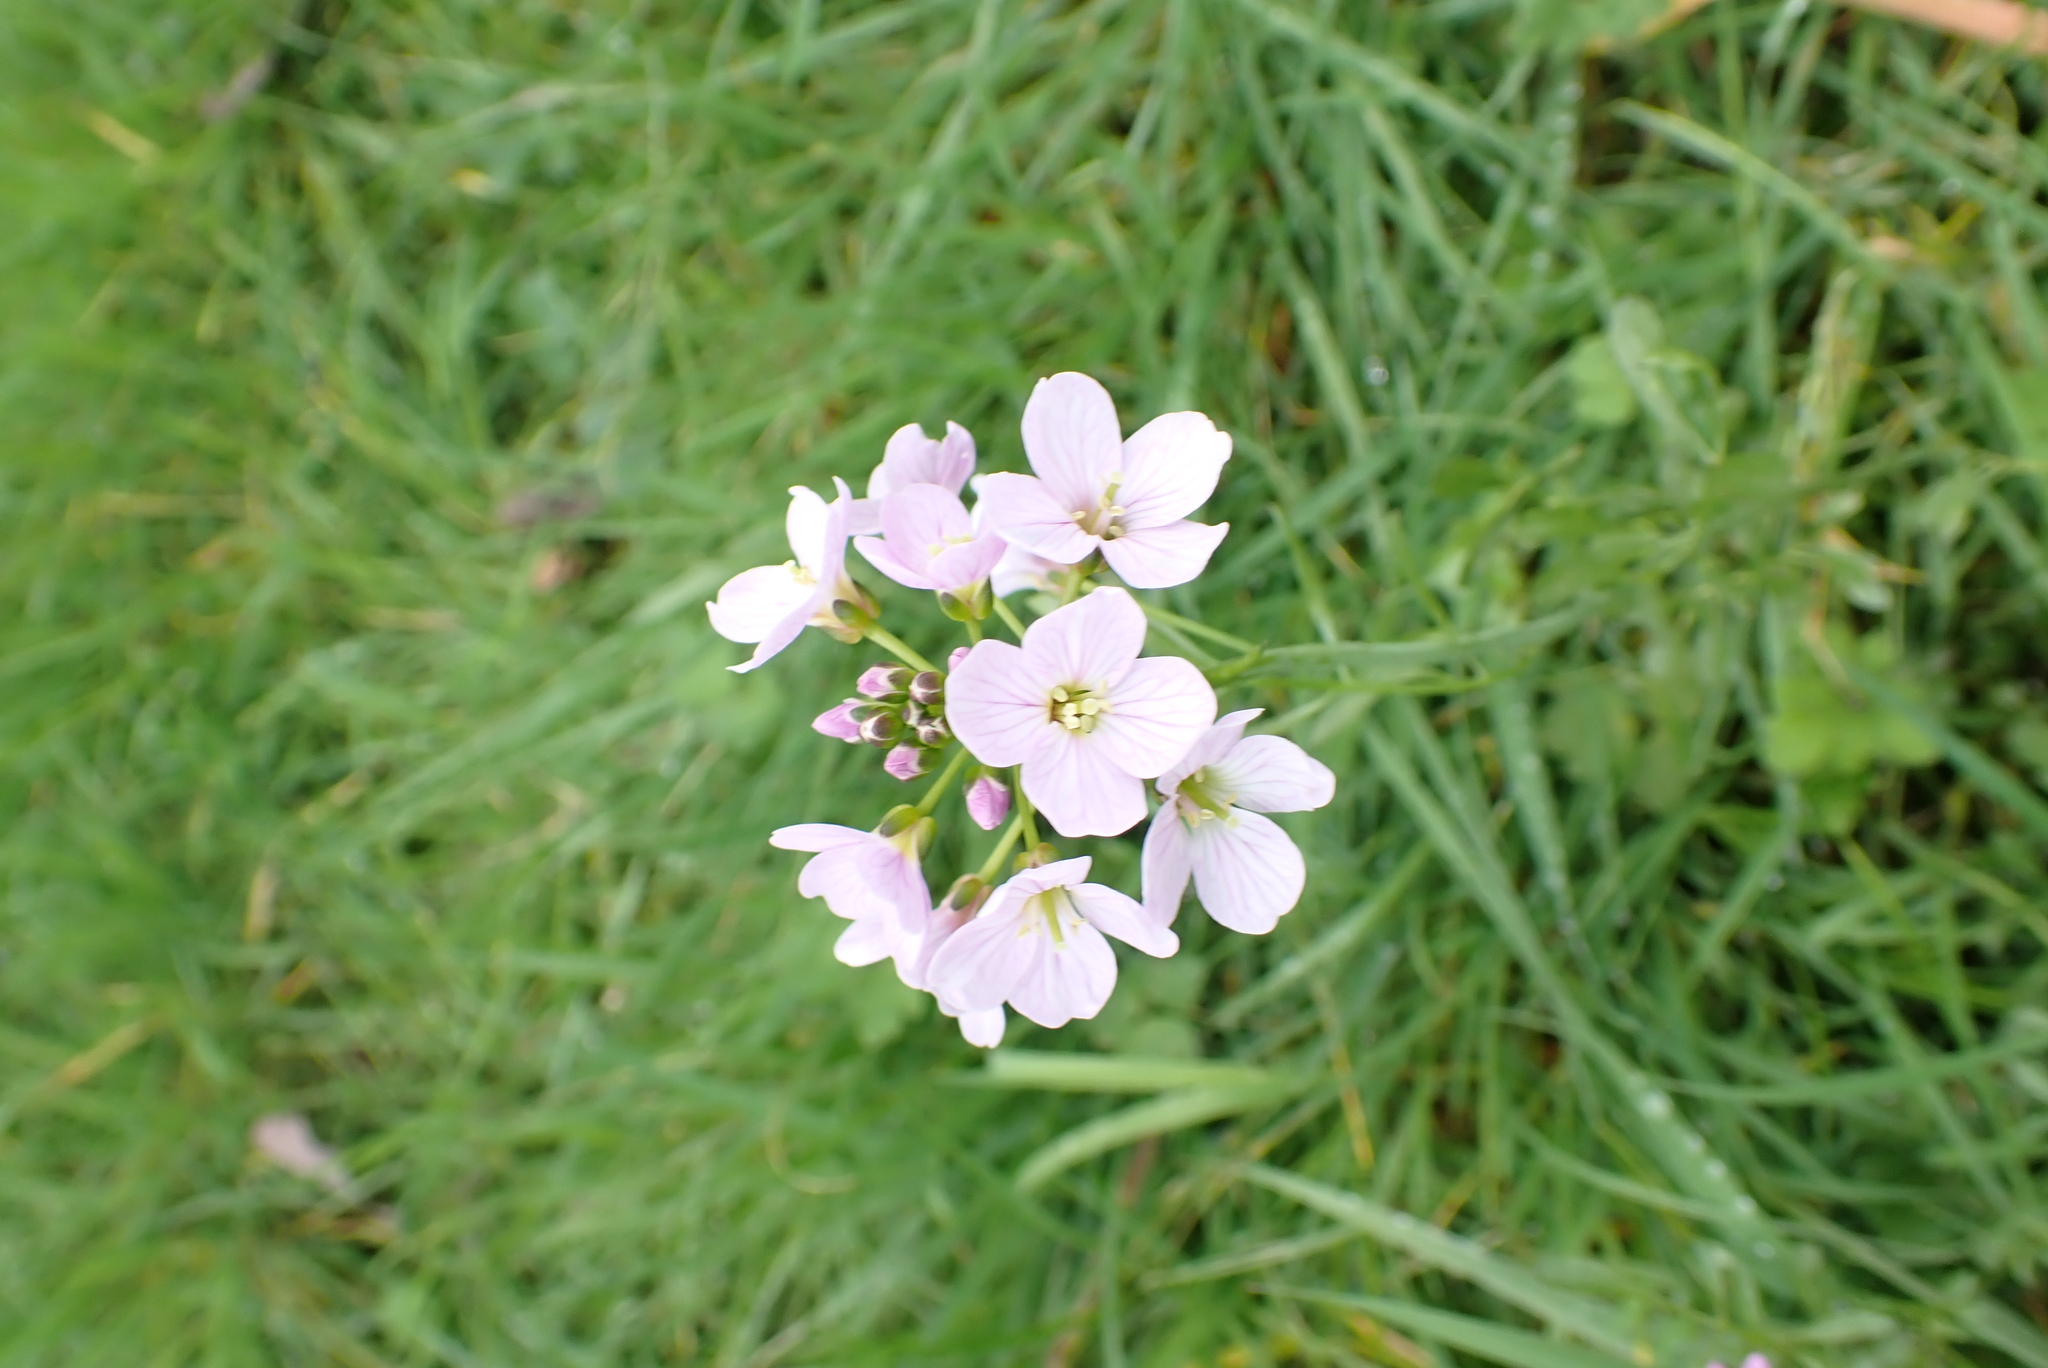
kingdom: Plantae
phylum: Tracheophyta
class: Magnoliopsida
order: Brassicales
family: Brassicaceae
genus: Cardamine
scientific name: Cardamine pratensis
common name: Cuckoo flower
